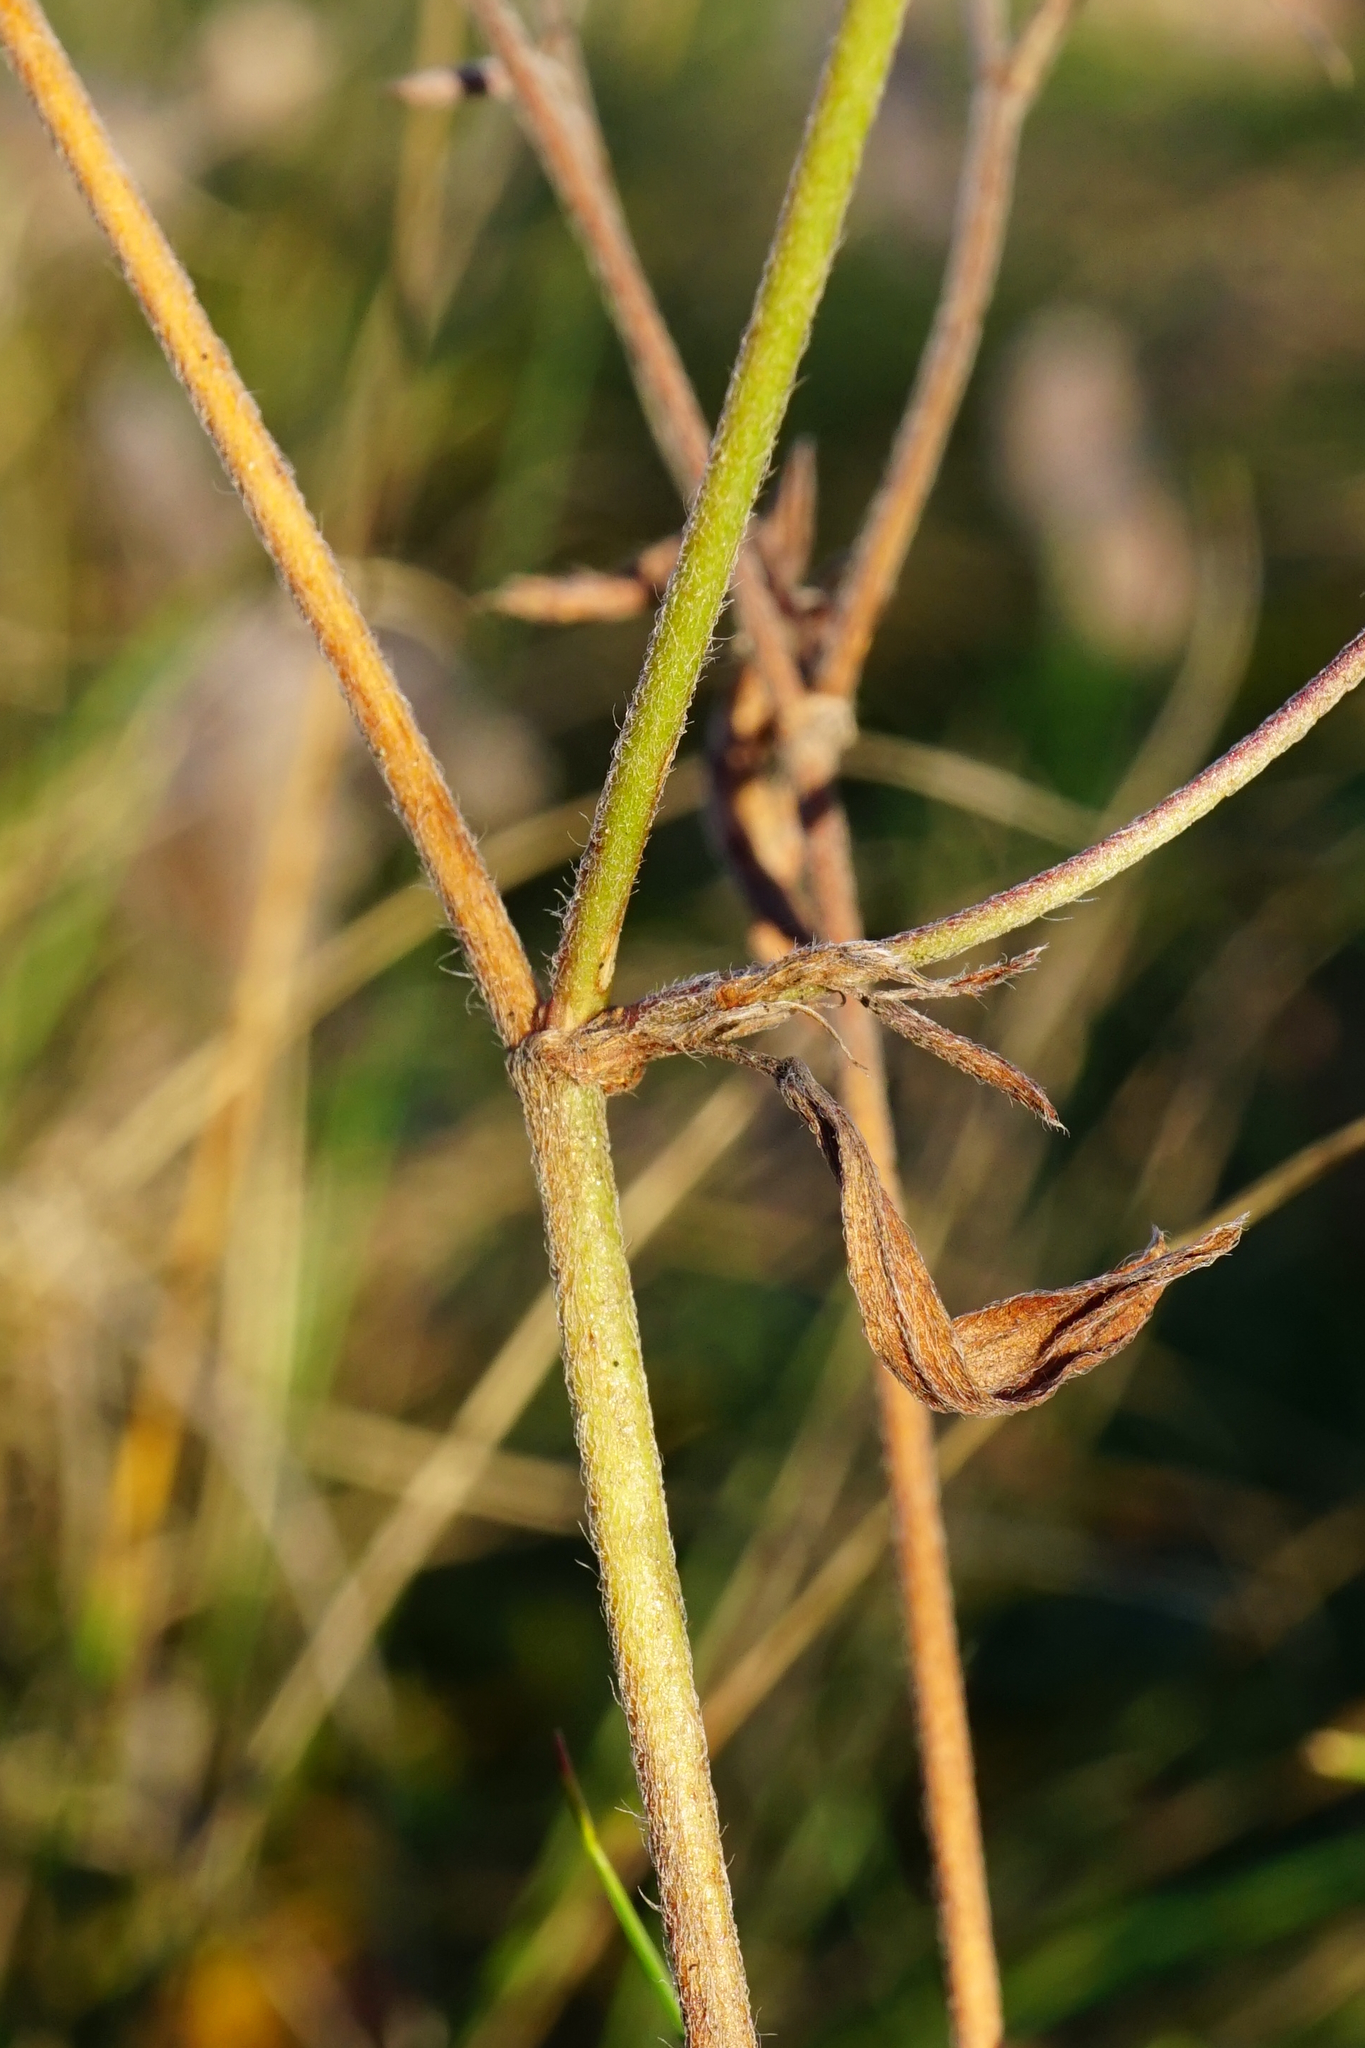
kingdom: Plantae
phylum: Tracheophyta
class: Magnoliopsida
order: Fabales
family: Fabaceae
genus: Trifolium
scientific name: Trifolium arvense
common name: Hare's-foot clover
